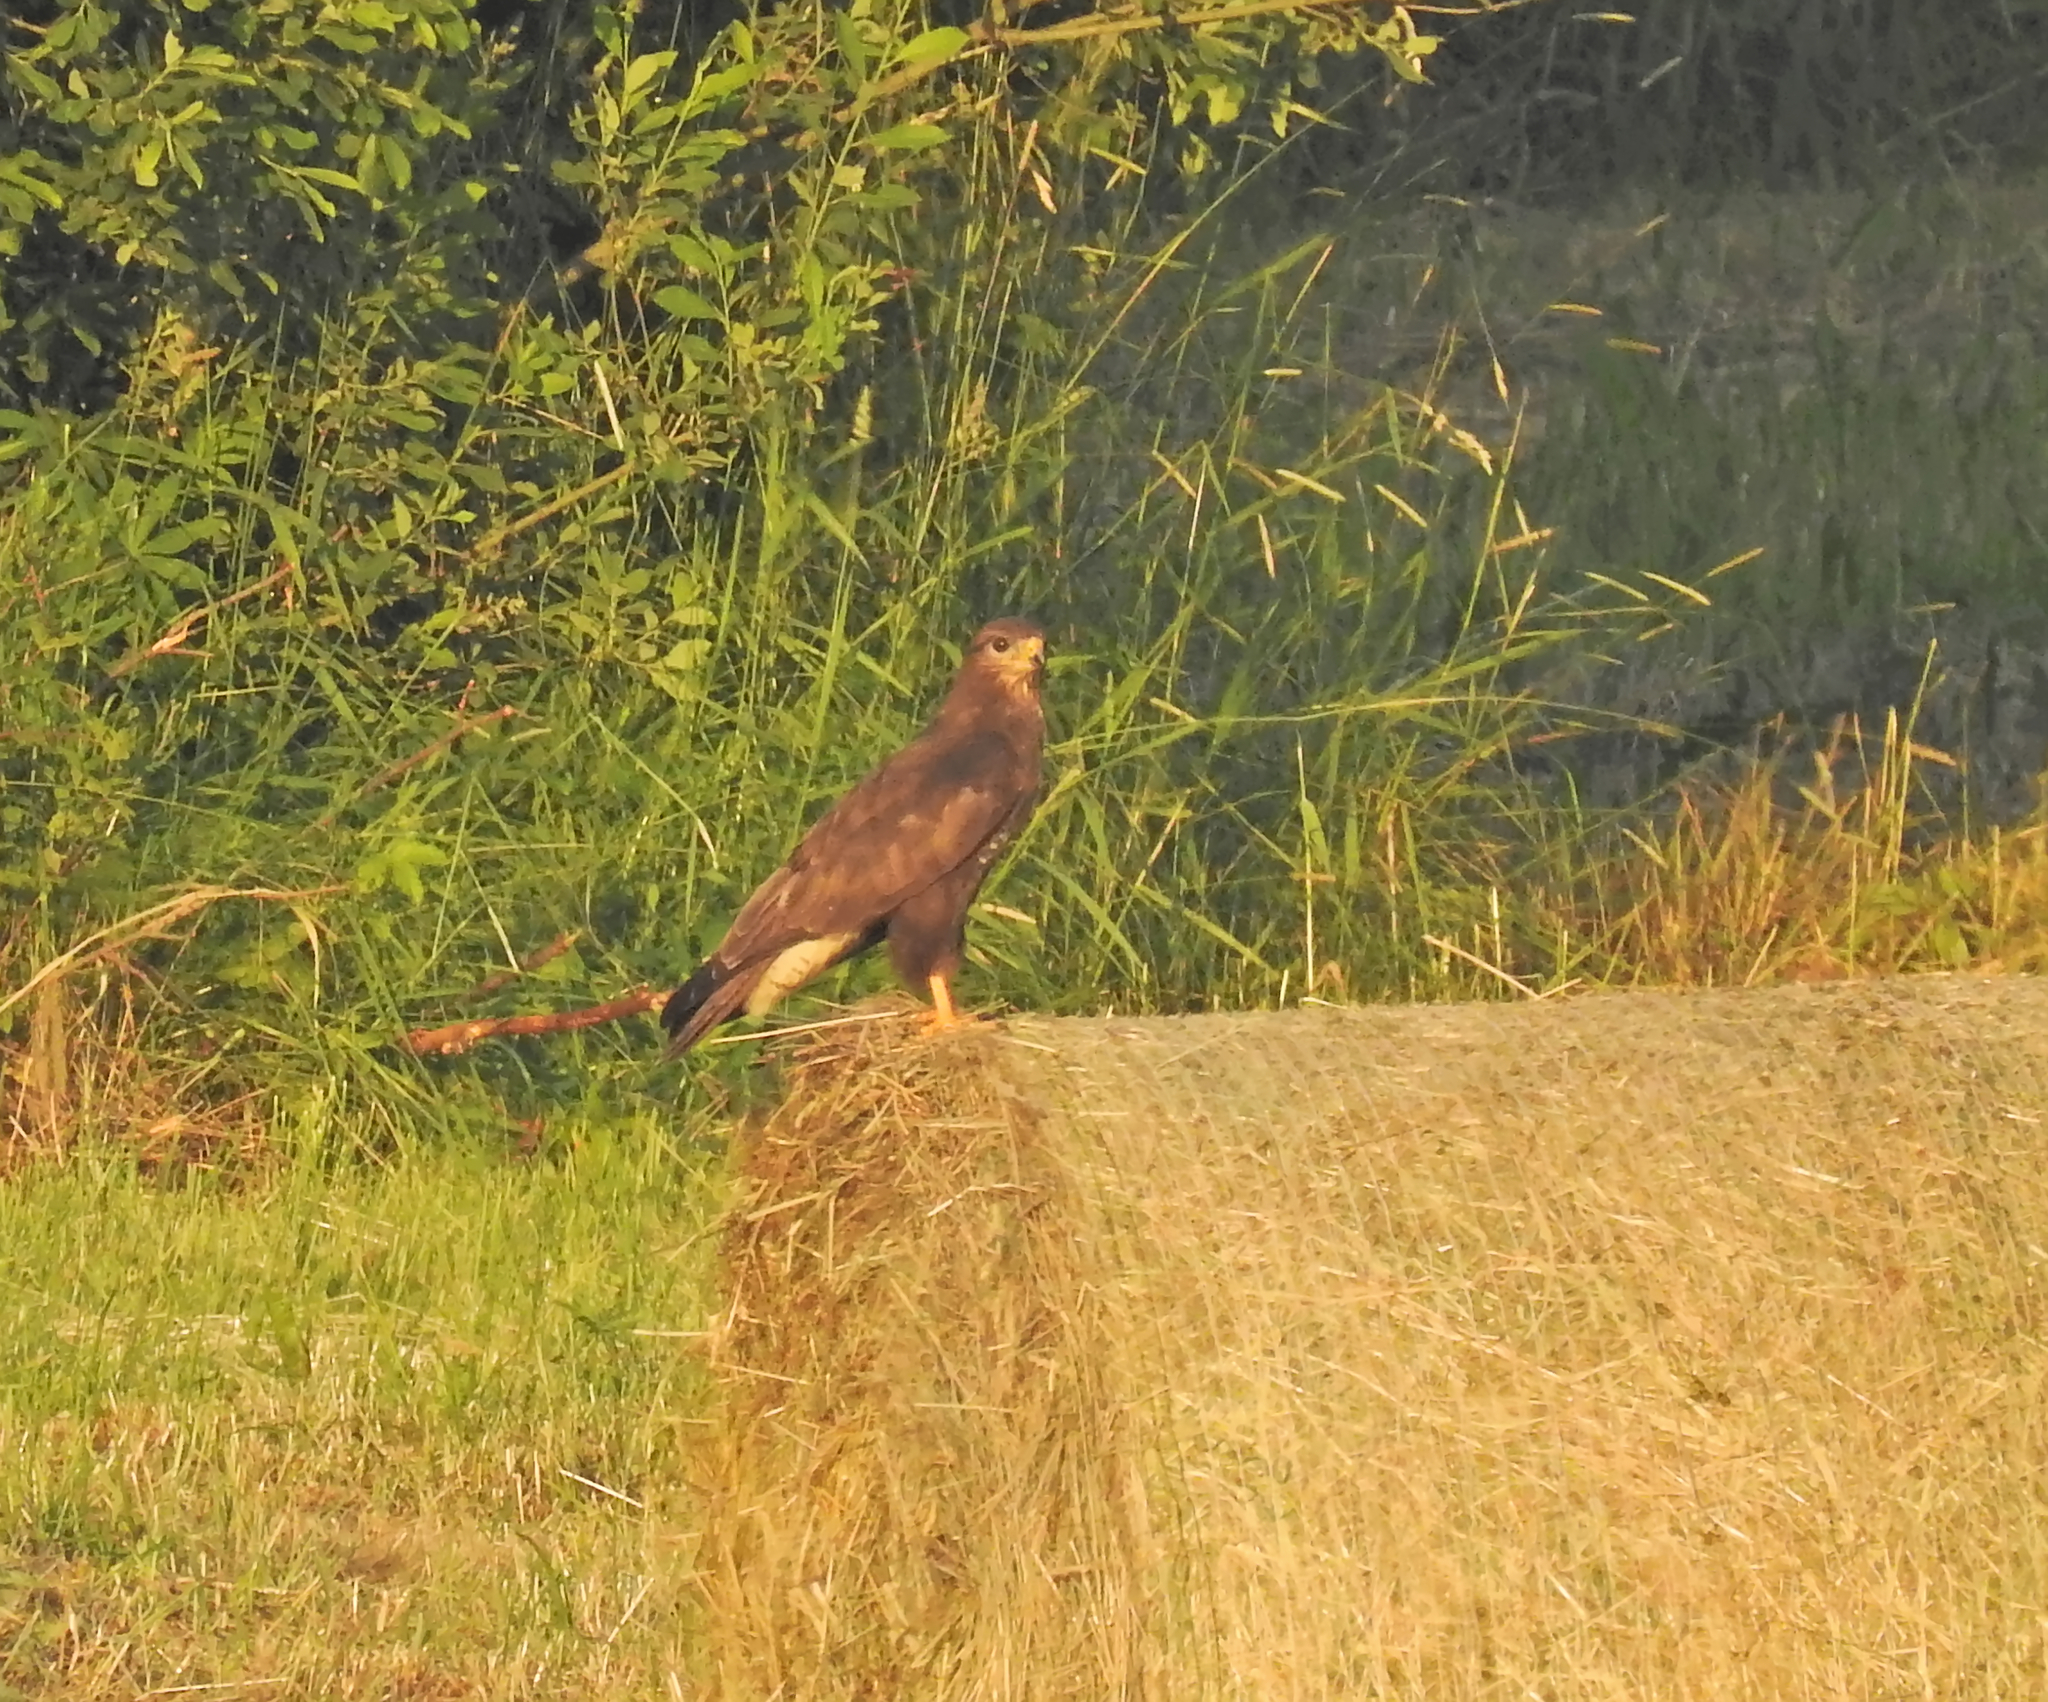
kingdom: Animalia
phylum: Chordata
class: Aves
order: Accipitriformes
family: Accipitridae
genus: Buteo
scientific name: Buteo buteo
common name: Common buzzard
